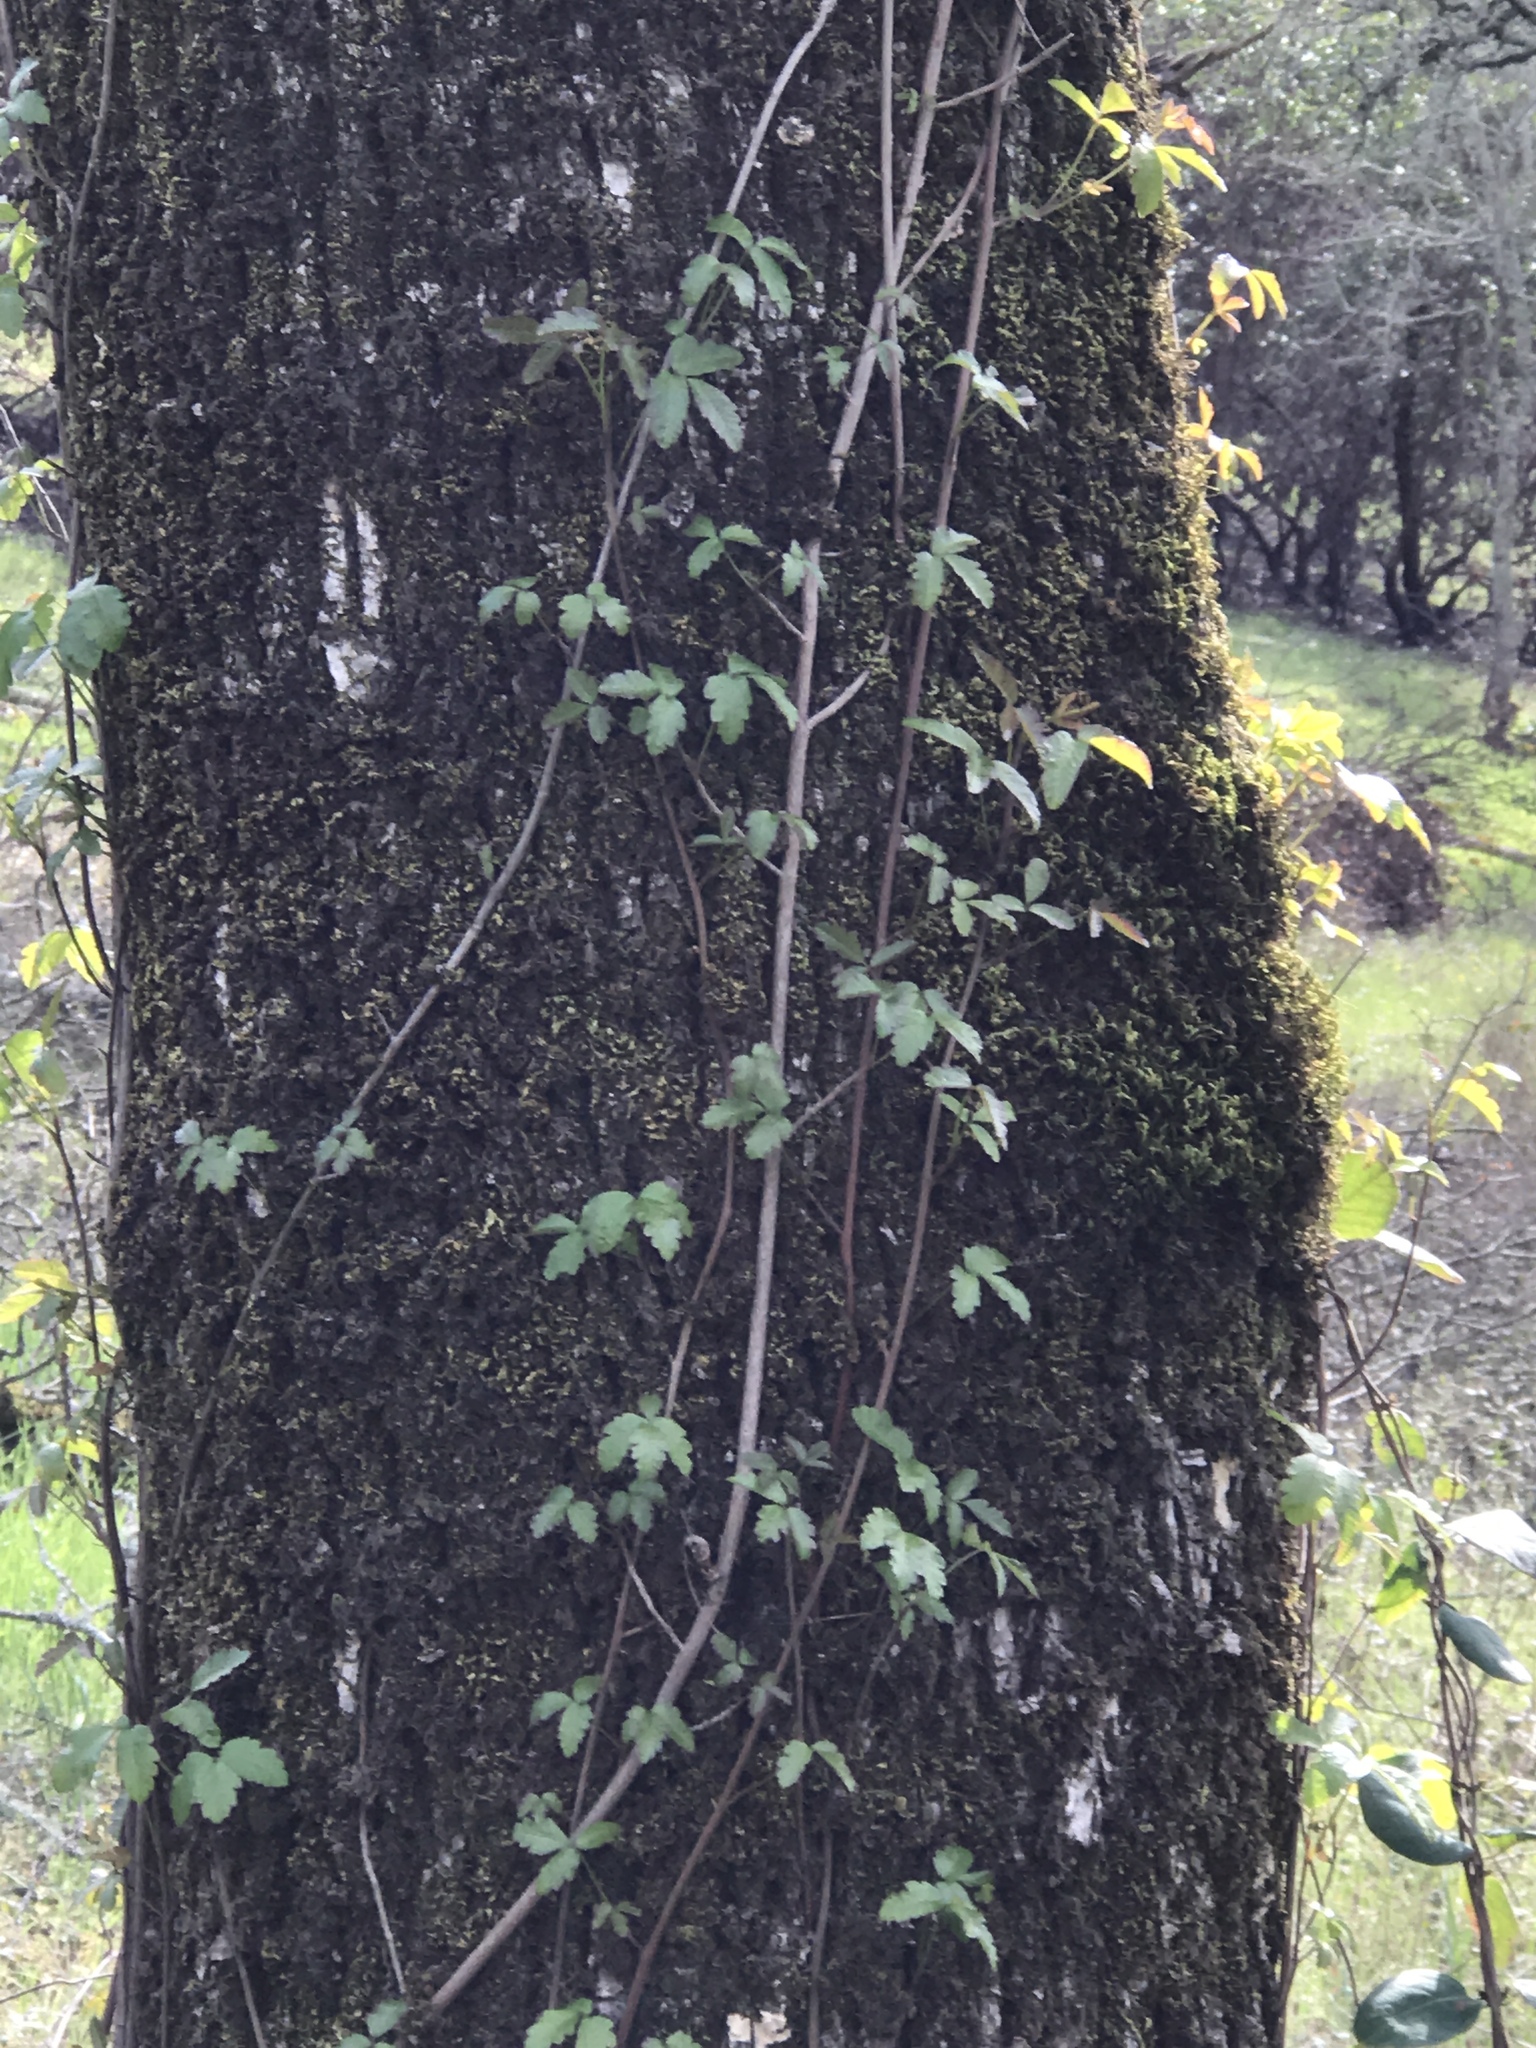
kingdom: Plantae
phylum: Tracheophyta
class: Magnoliopsida
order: Sapindales
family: Anacardiaceae
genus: Toxicodendron
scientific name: Toxicodendron diversilobum
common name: Pacific poison-oak
